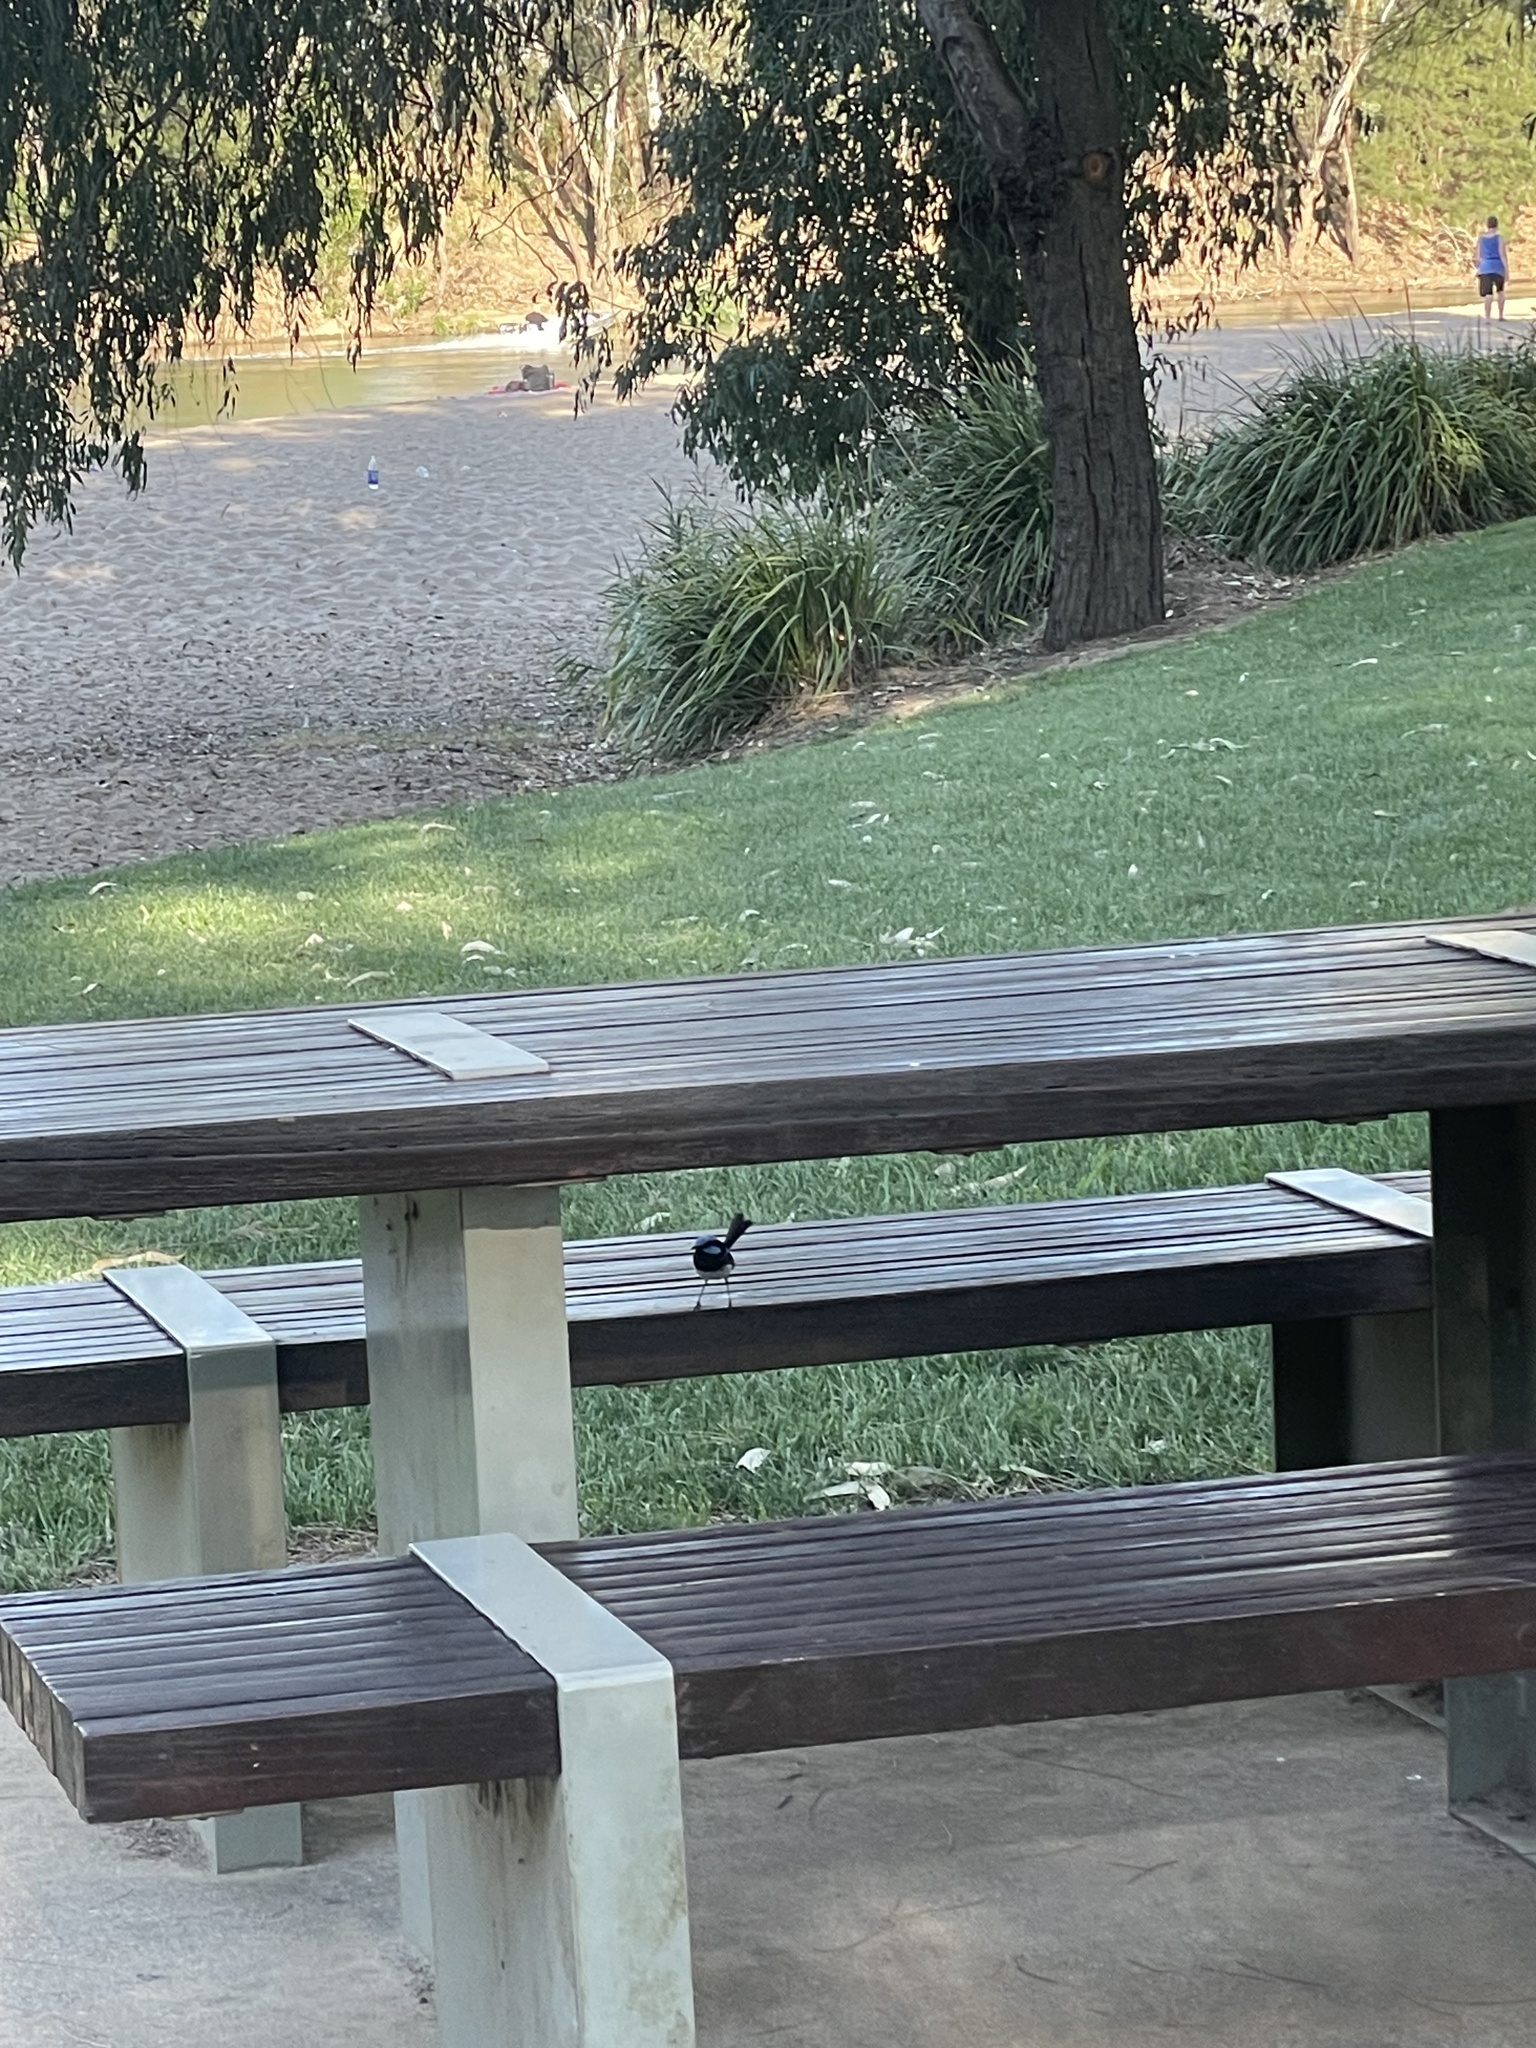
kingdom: Animalia
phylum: Chordata
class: Aves
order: Passeriformes
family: Maluridae
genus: Malurus
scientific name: Malurus cyaneus
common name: Superb fairywren
